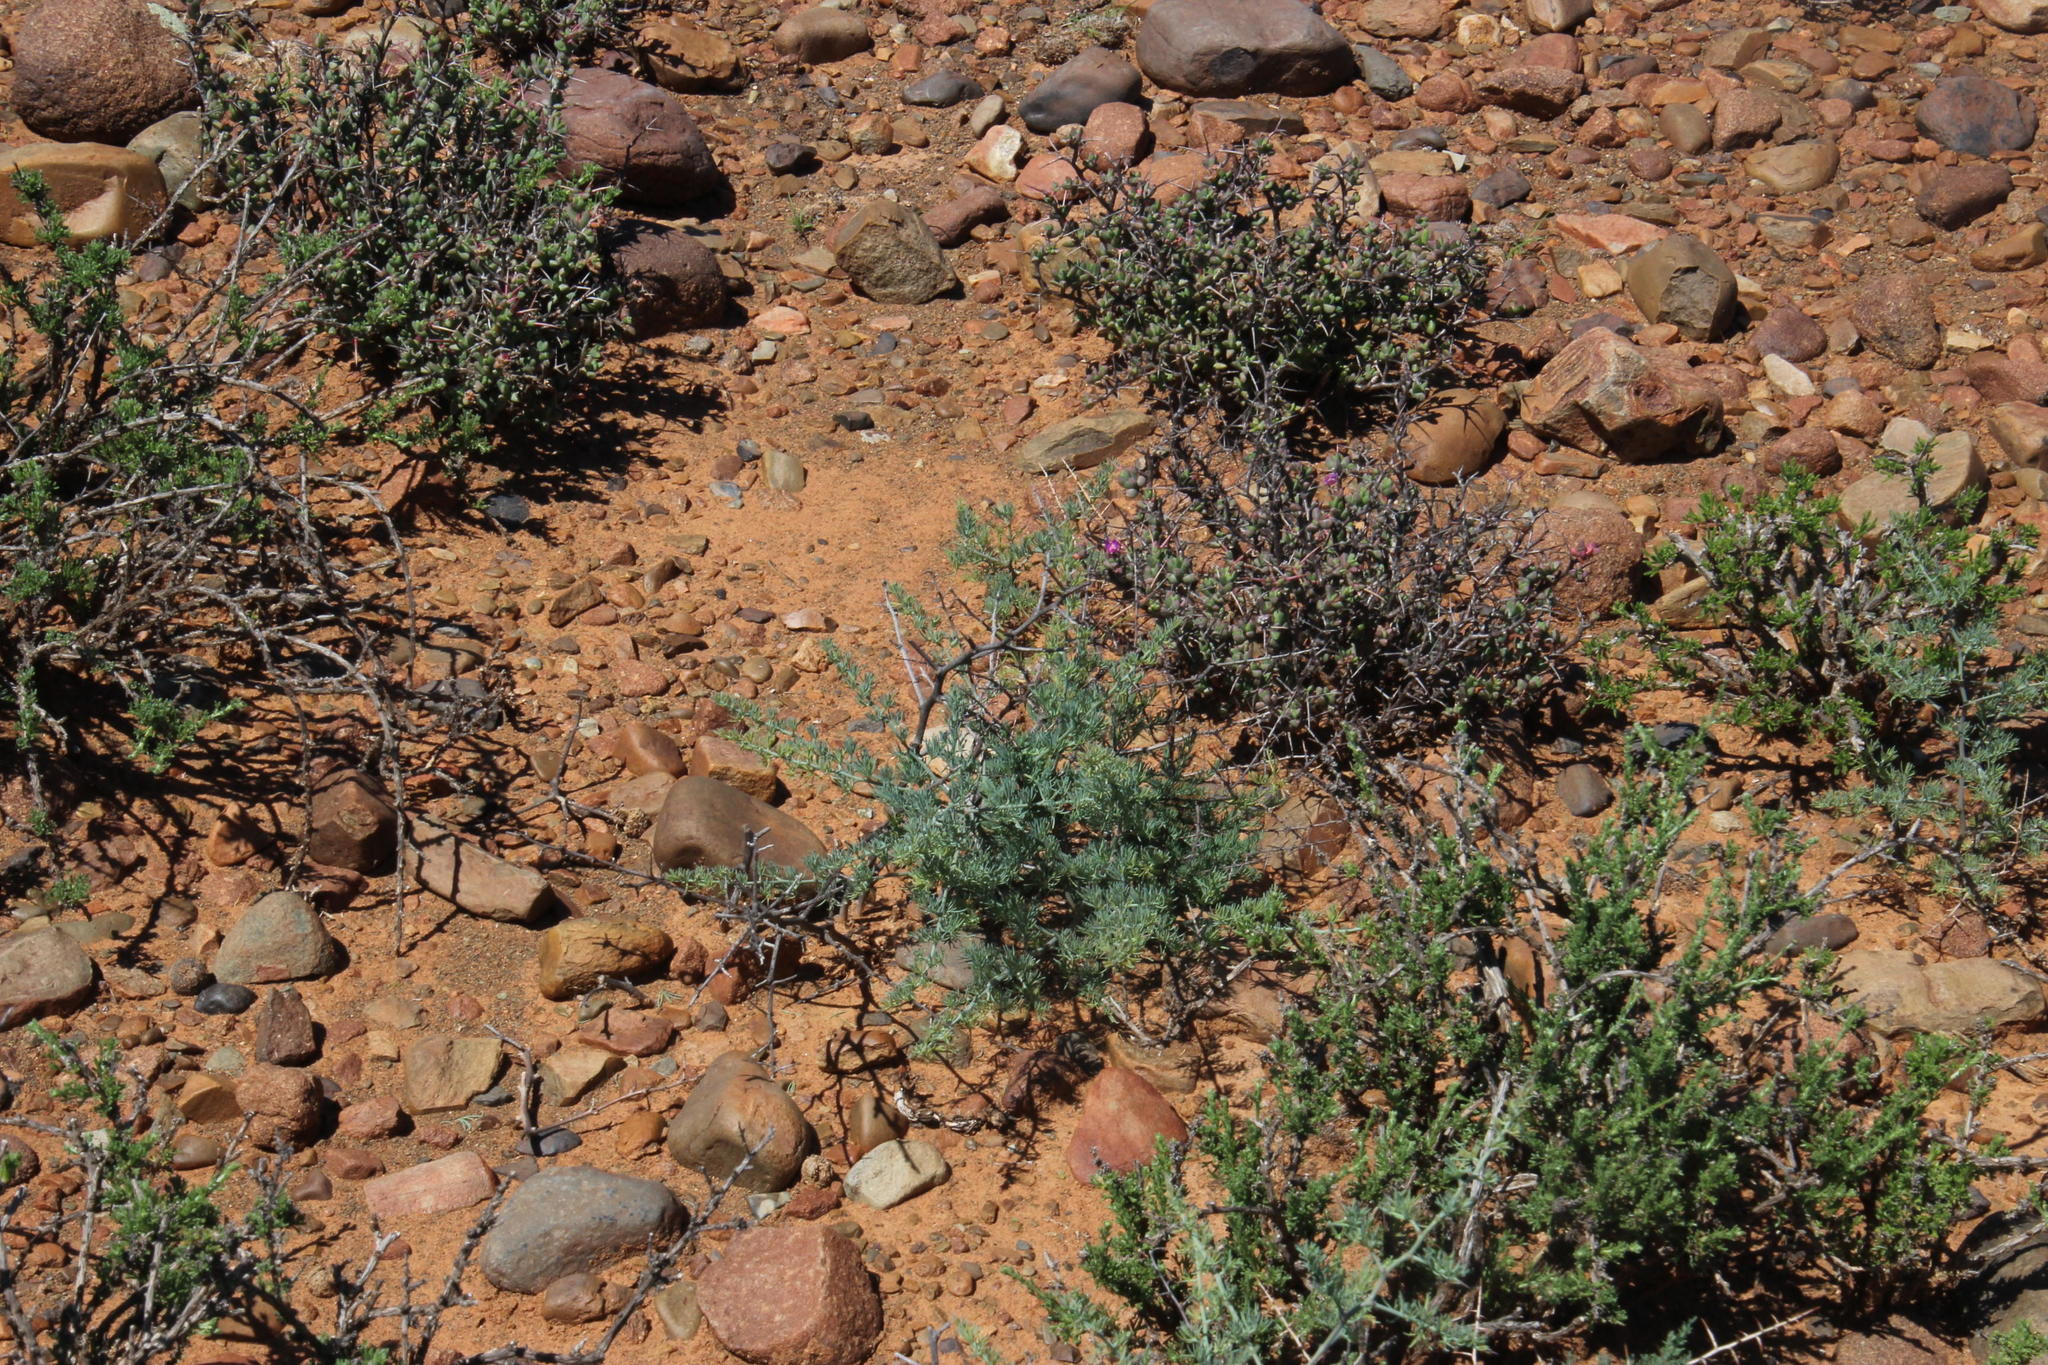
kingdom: Plantae
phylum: Tracheophyta
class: Liliopsida
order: Asparagales
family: Asparagaceae
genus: Asparagus
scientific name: Asparagus glaucus
